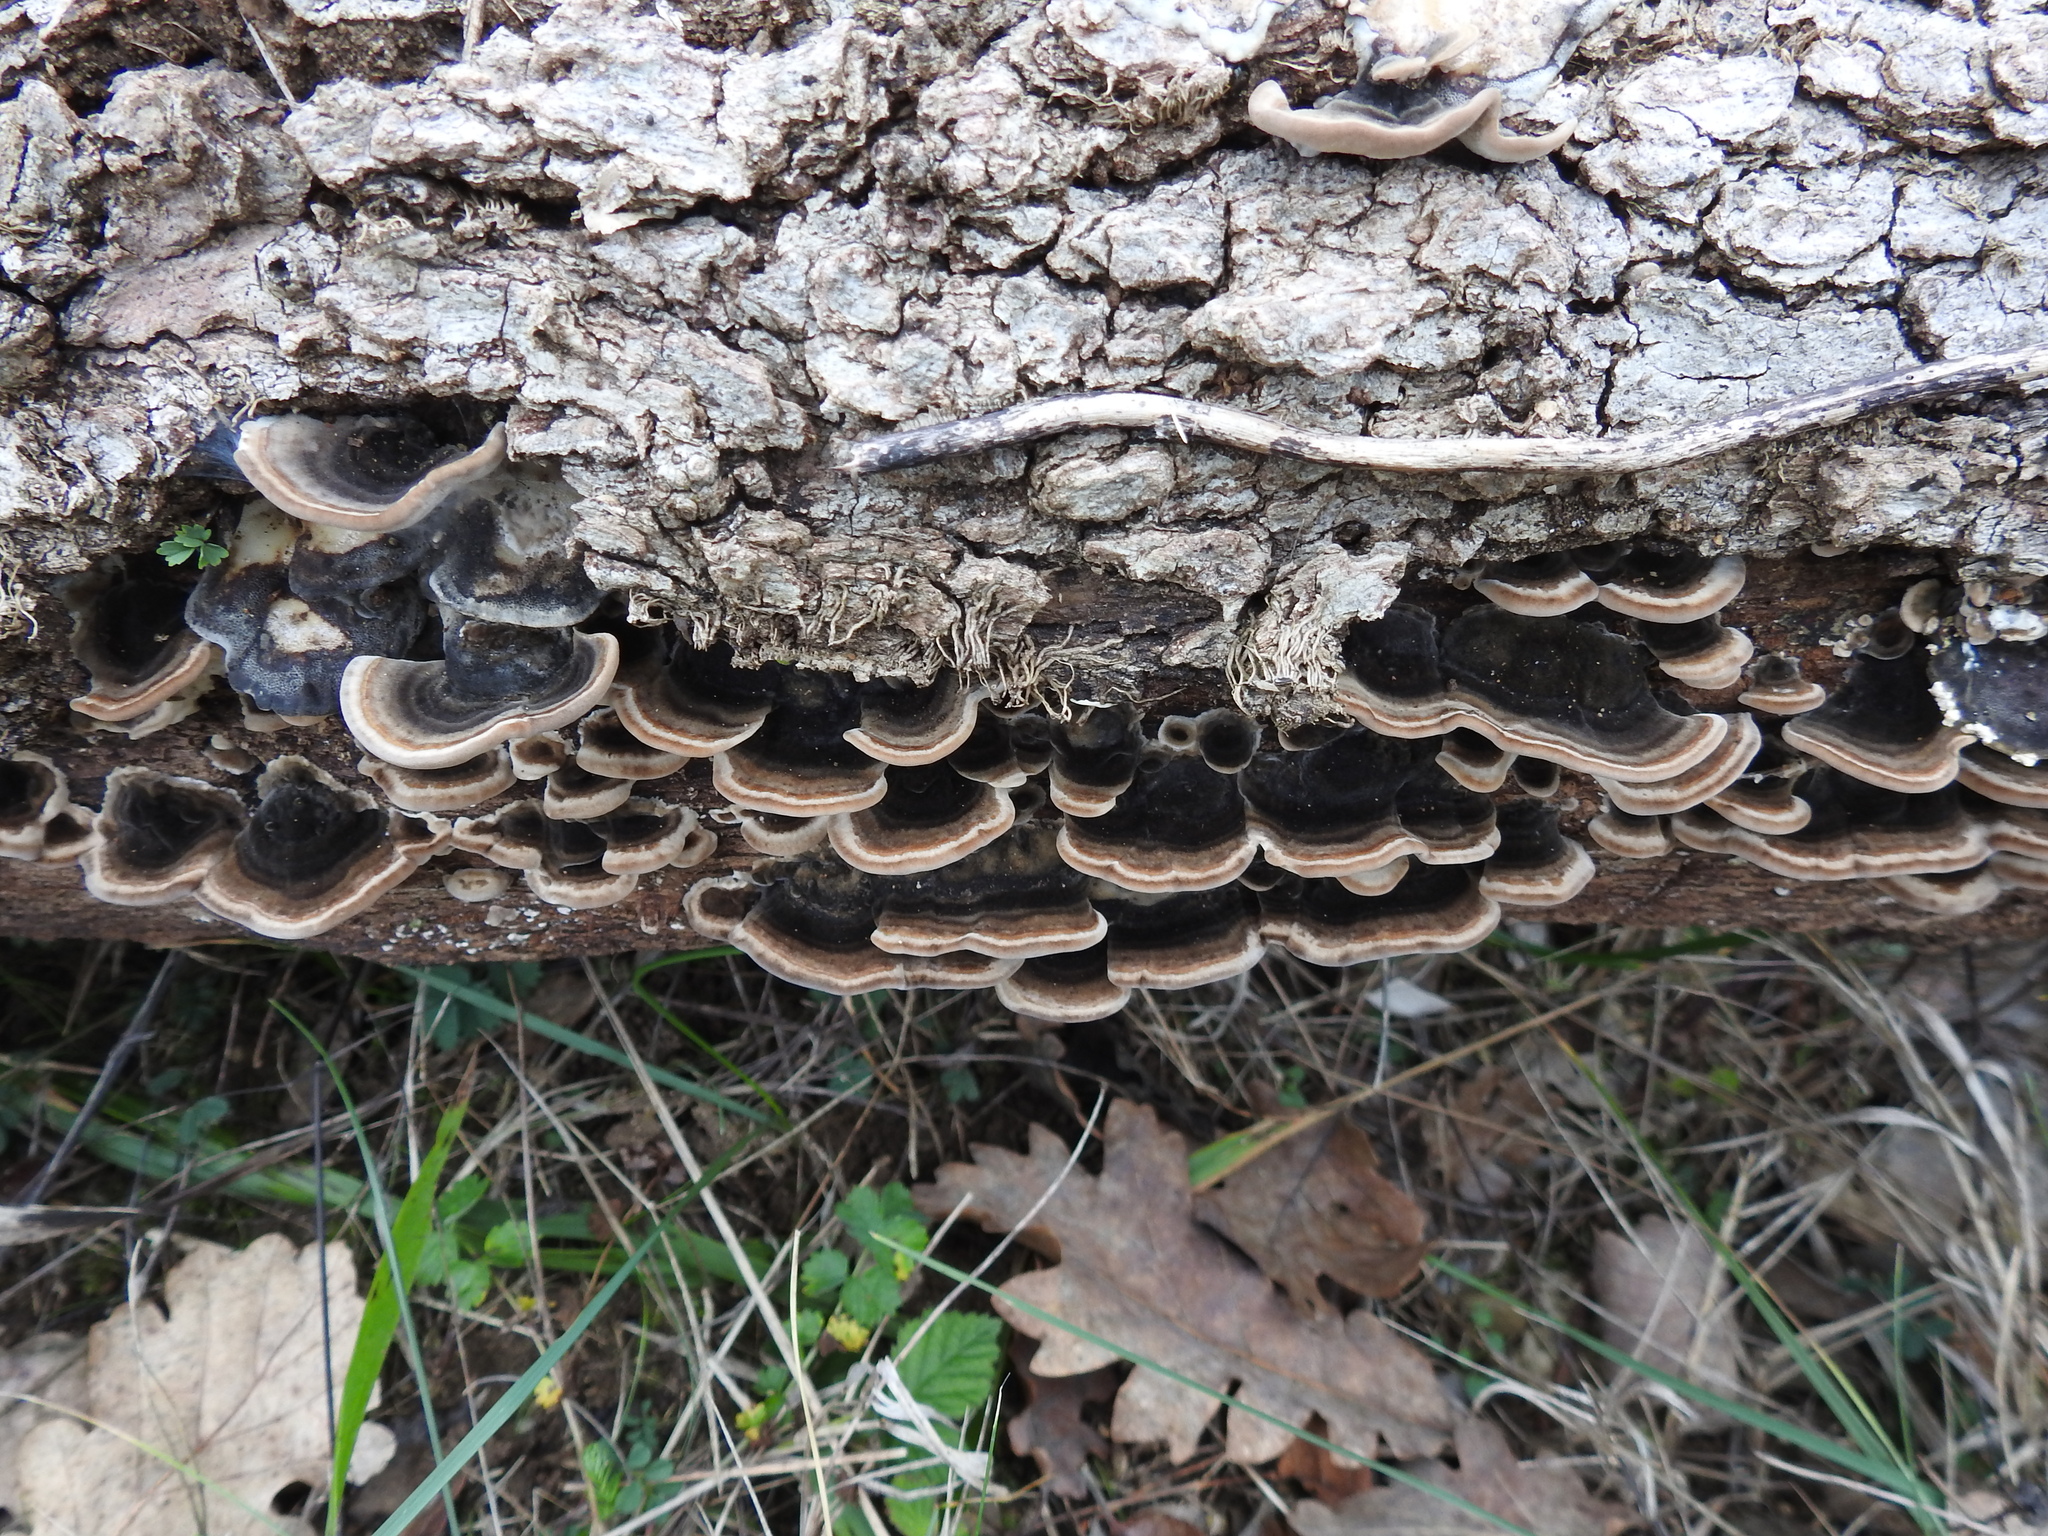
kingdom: Fungi
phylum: Basidiomycota
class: Agaricomycetes
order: Polyporales
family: Polyporaceae
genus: Trametes
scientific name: Trametes versicolor
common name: Turkeytail
